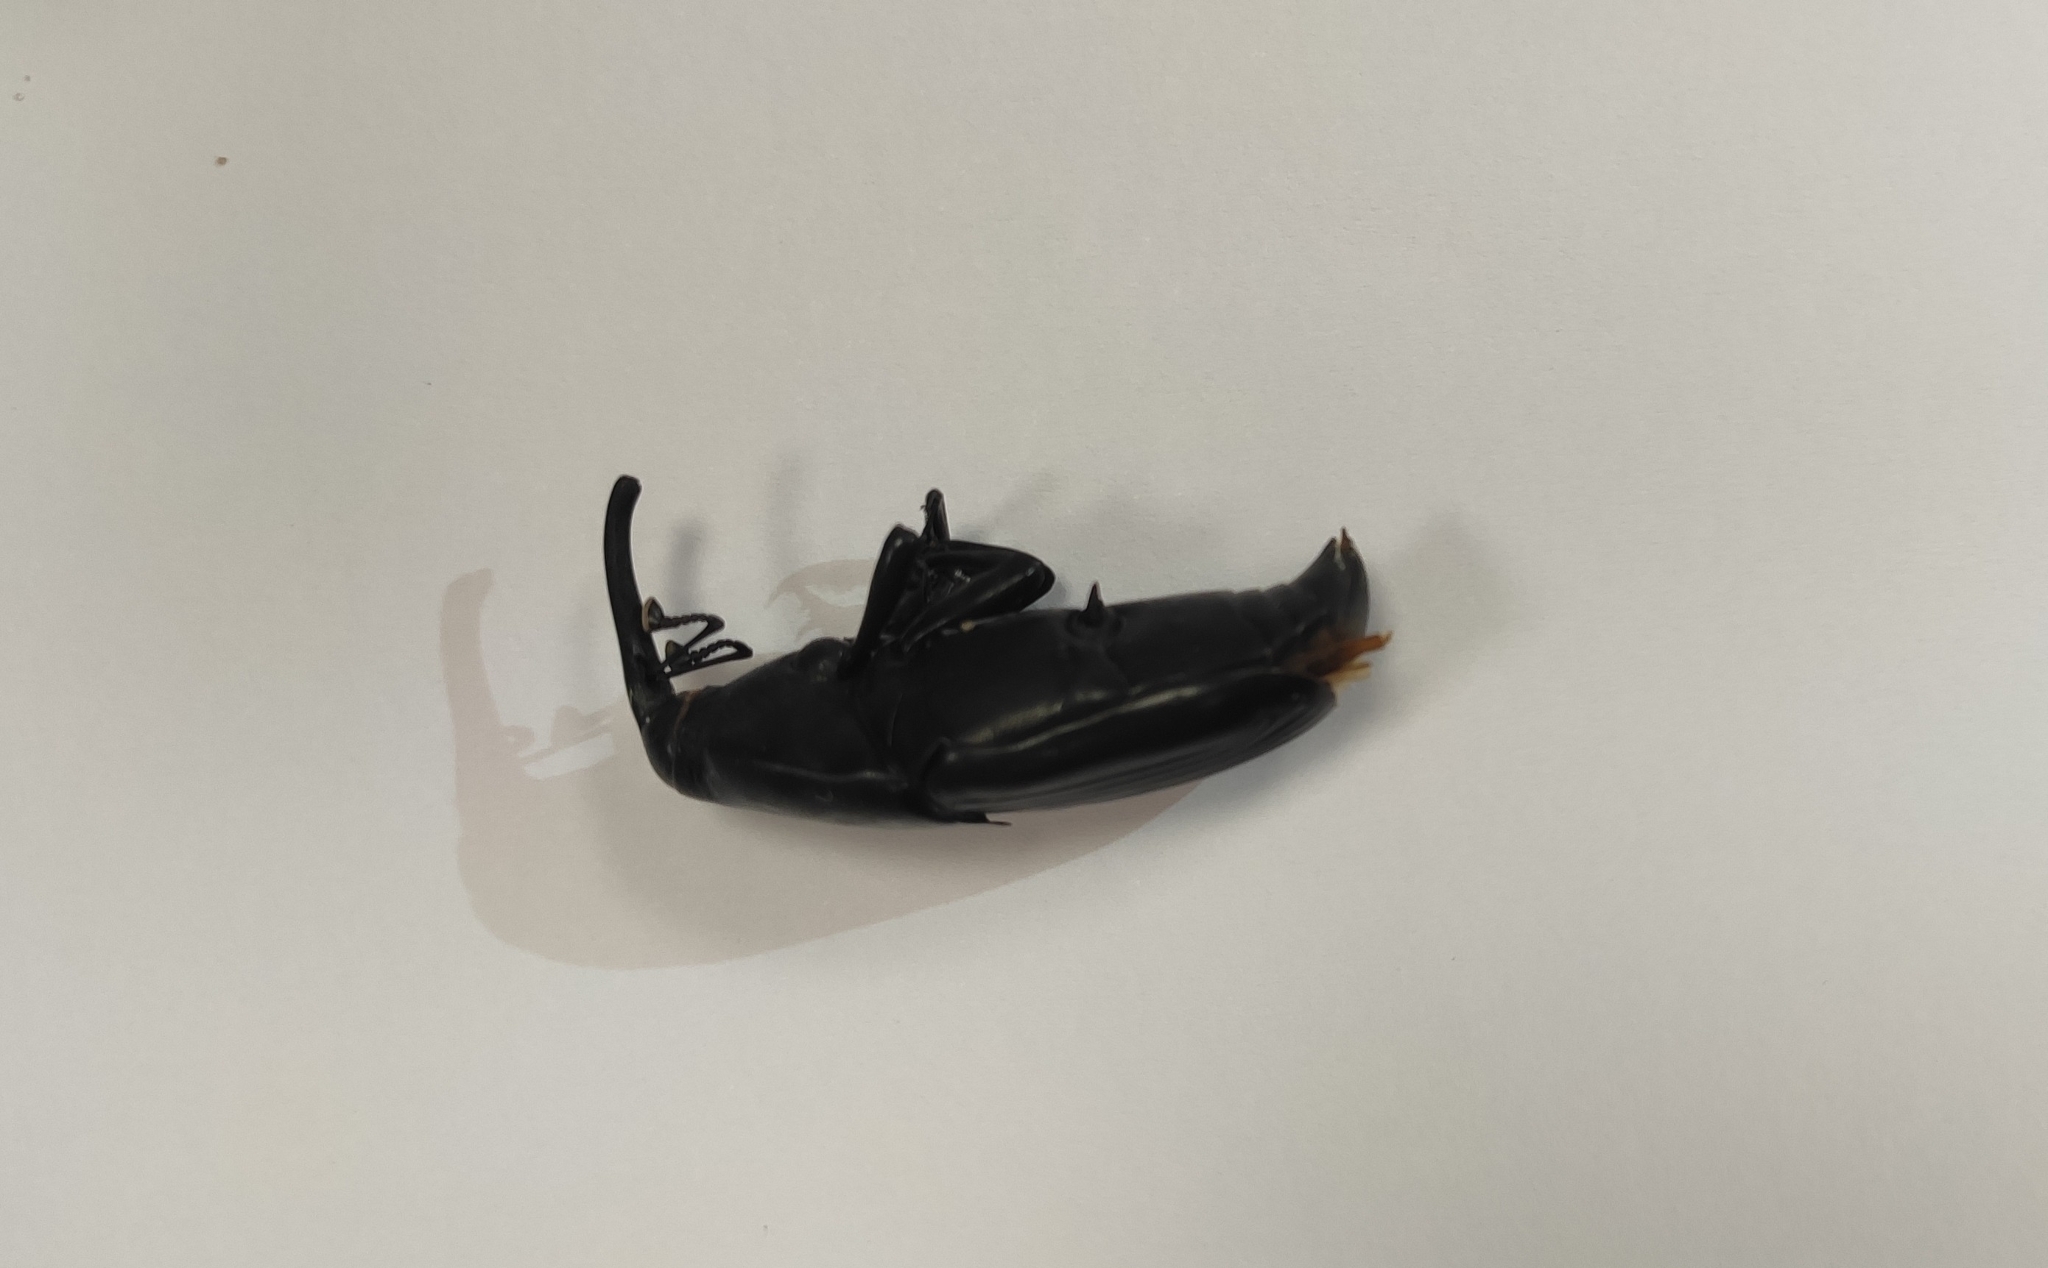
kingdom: Animalia
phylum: Arthropoda
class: Insecta
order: Coleoptera
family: Dryophthoridae
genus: Rhynchophorus
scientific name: Rhynchophorus palmarum
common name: Palm weevil
